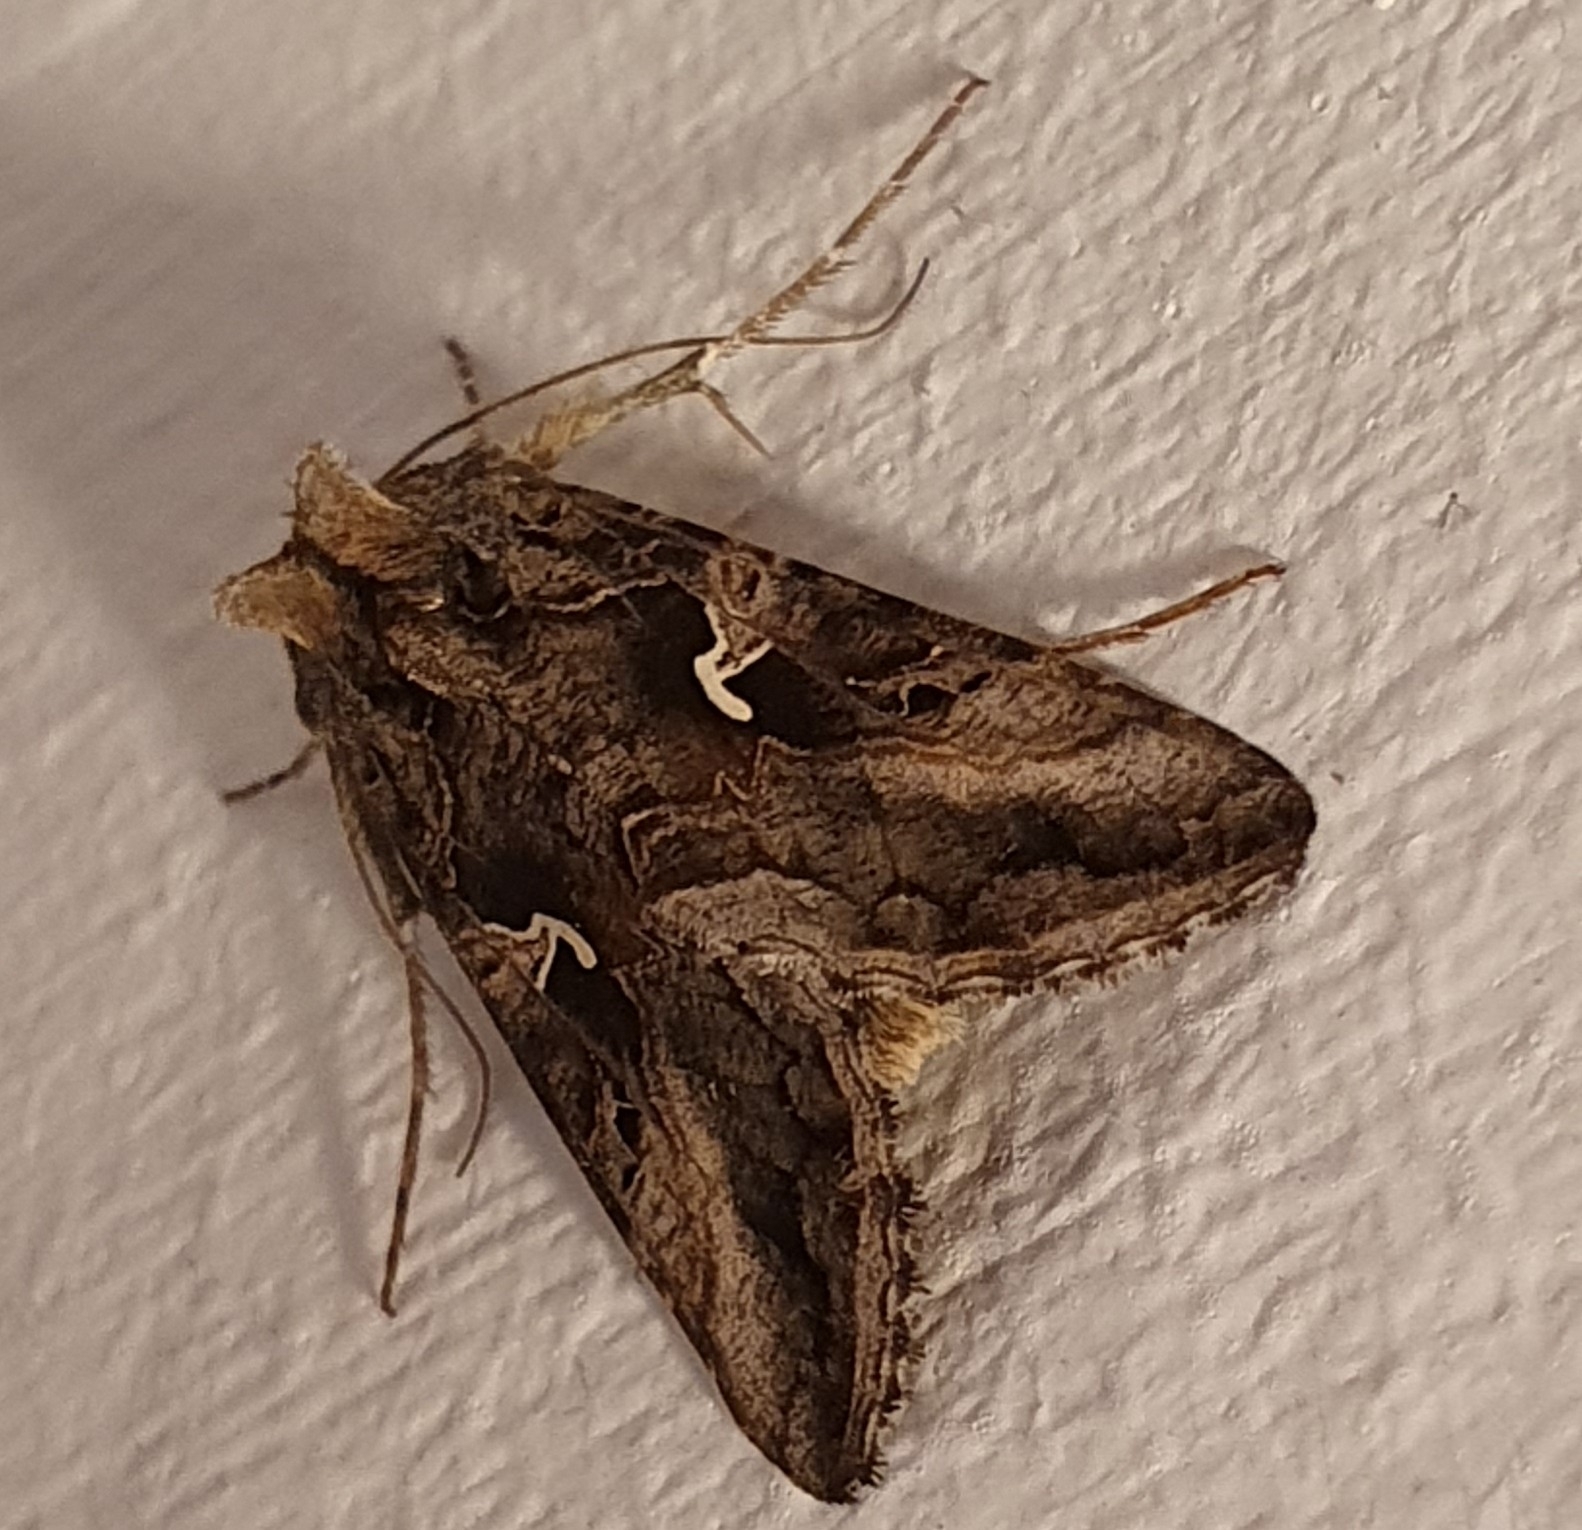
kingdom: Animalia
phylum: Arthropoda
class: Insecta
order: Lepidoptera
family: Noctuidae
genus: Autographa
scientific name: Autographa gamma
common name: Silver y
